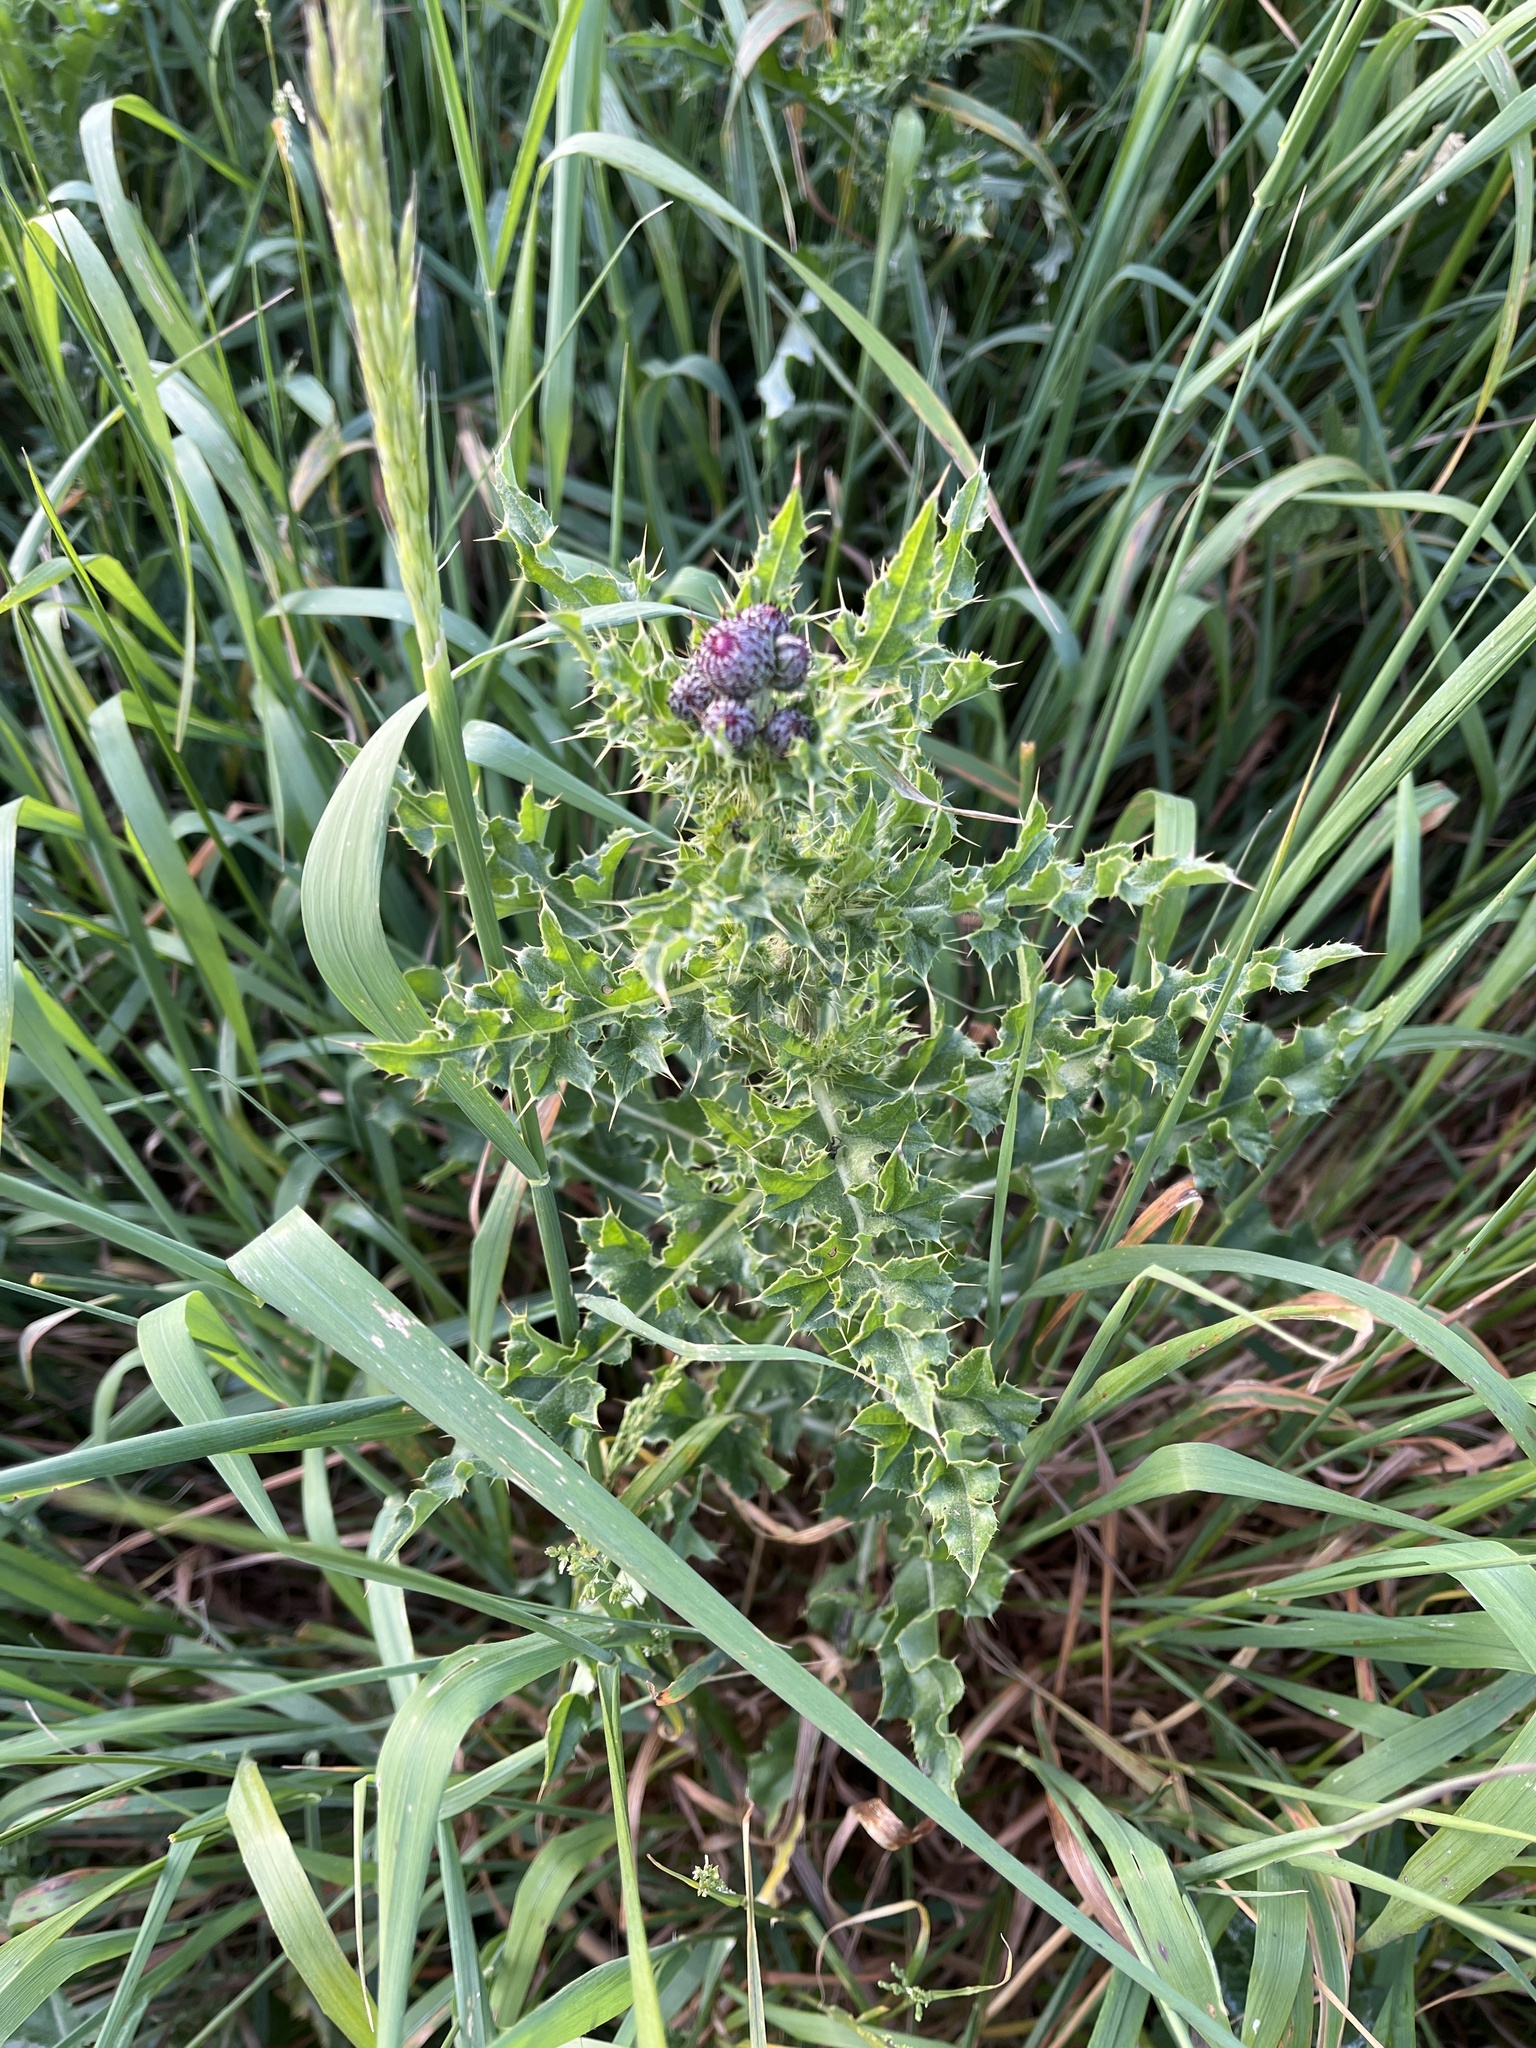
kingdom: Plantae
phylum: Tracheophyta
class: Magnoliopsida
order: Asterales
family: Asteraceae
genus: Cirsium
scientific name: Cirsium arvense
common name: Creeping thistle
